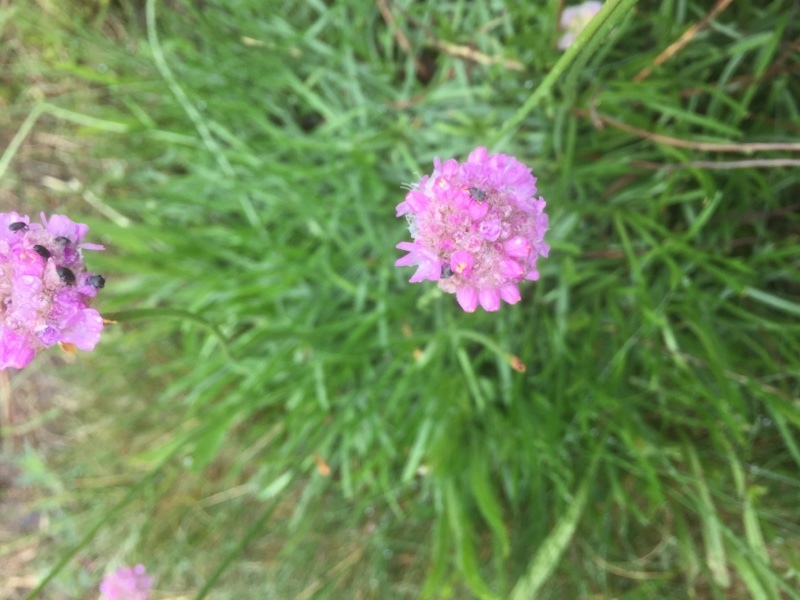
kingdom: Plantae
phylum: Tracheophyta
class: Magnoliopsida
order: Caryophyllales
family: Plumbaginaceae
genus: Armeria
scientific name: Armeria maritima
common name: Thrift
